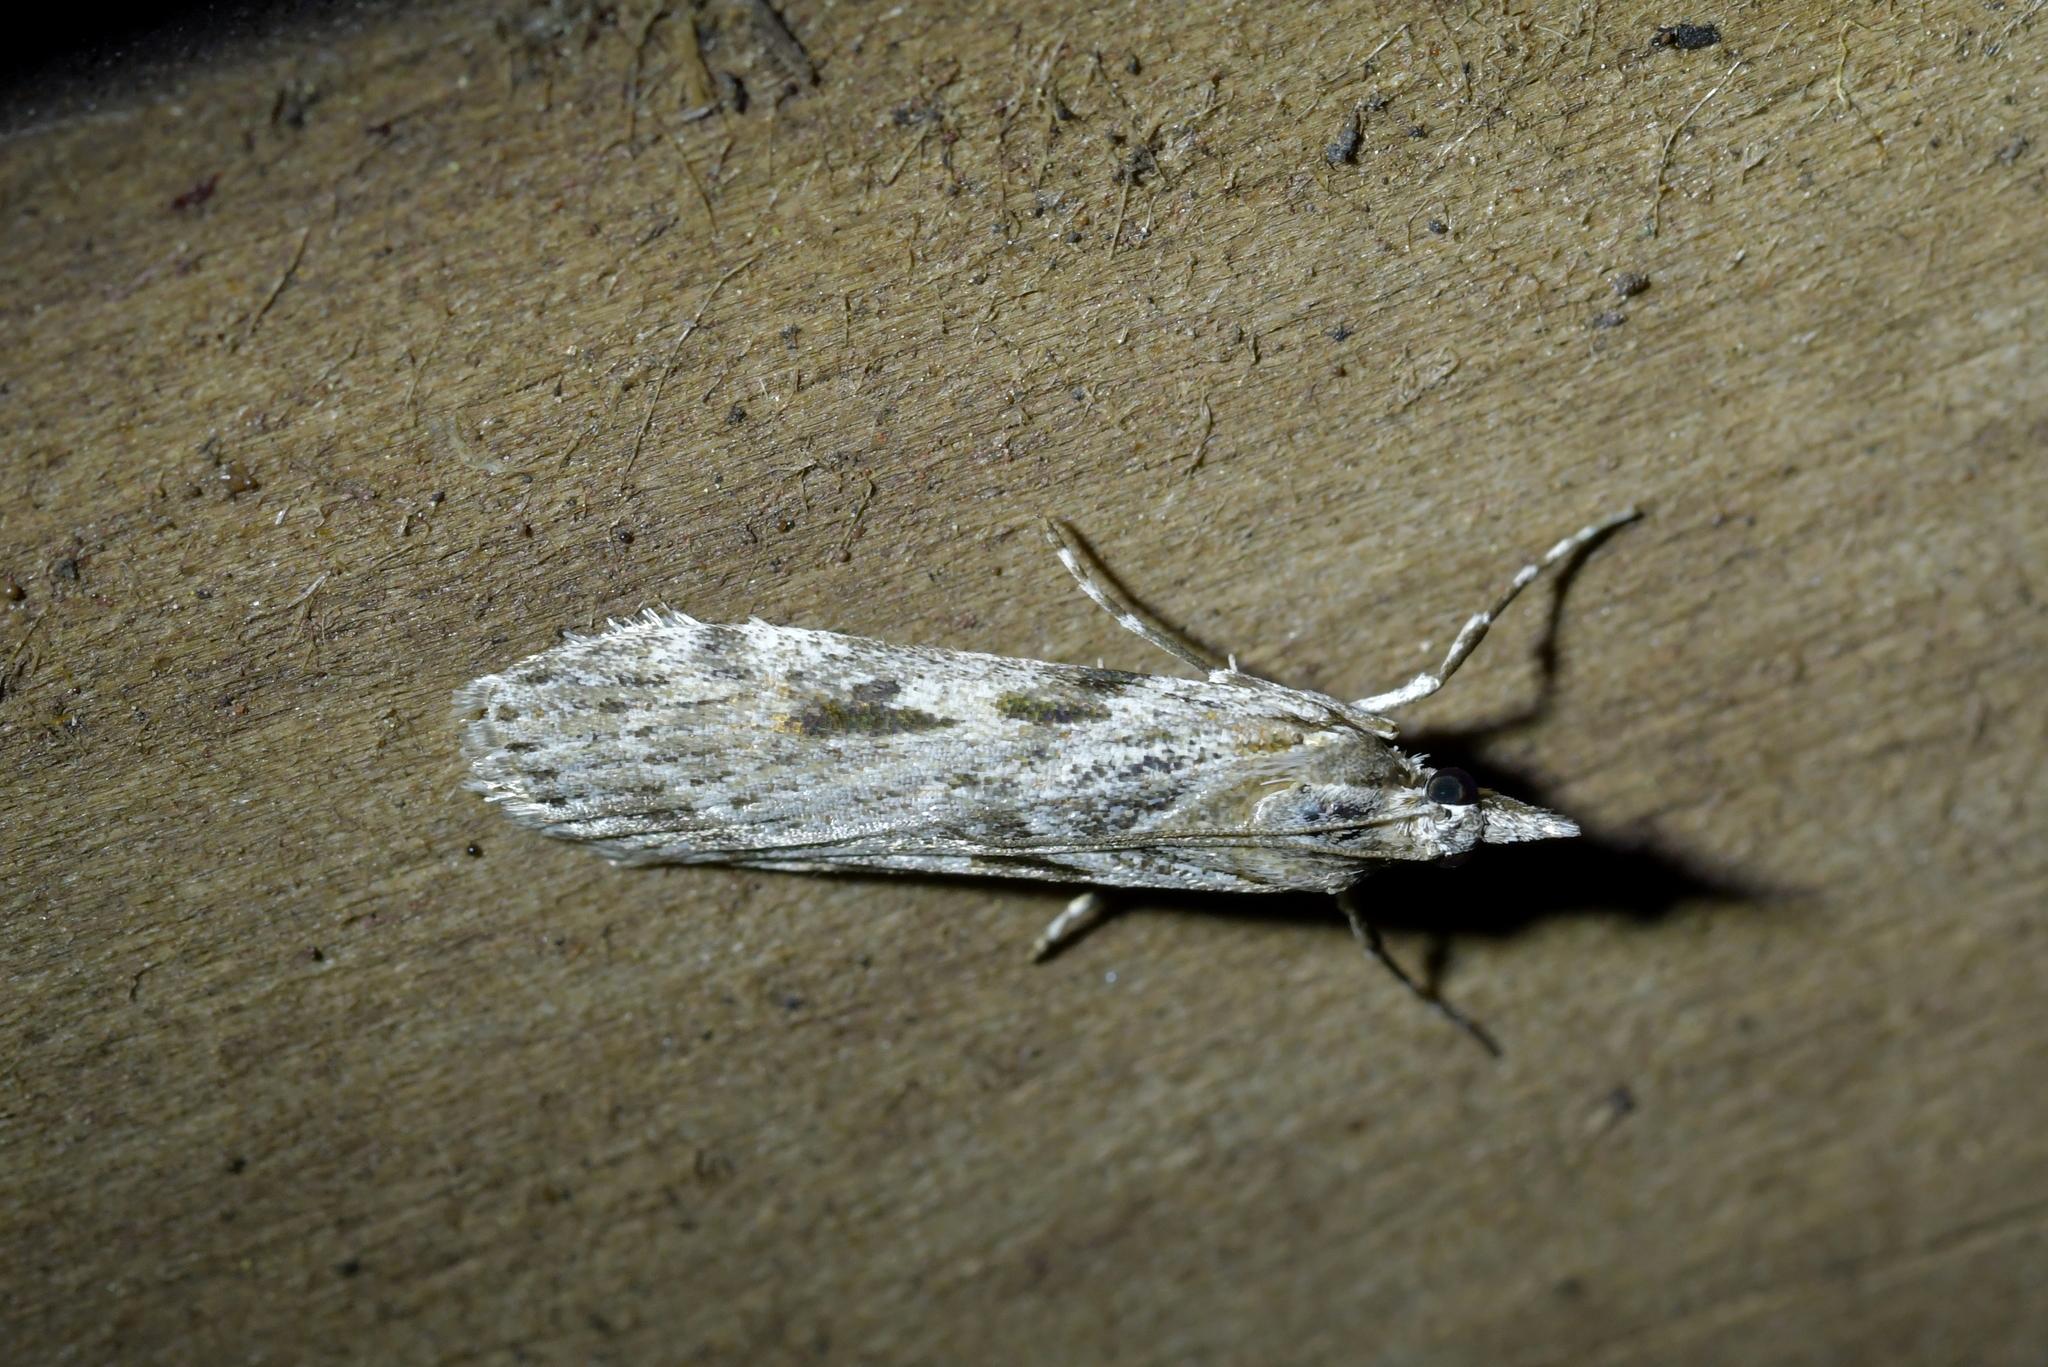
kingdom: Animalia
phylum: Arthropoda
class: Insecta
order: Lepidoptera
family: Crambidae
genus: Scoparia
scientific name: Scoparia halopis
